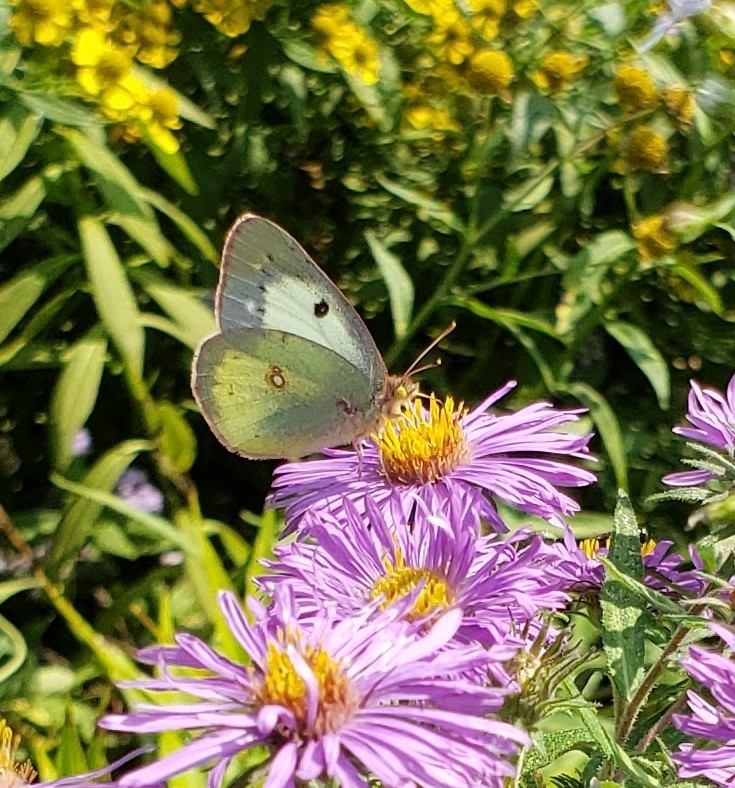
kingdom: Animalia
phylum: Arthropoda
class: Insecta
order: Lepidoptera
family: Pieridae
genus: Colias
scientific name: Colias philodice
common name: Clouded sulphur
